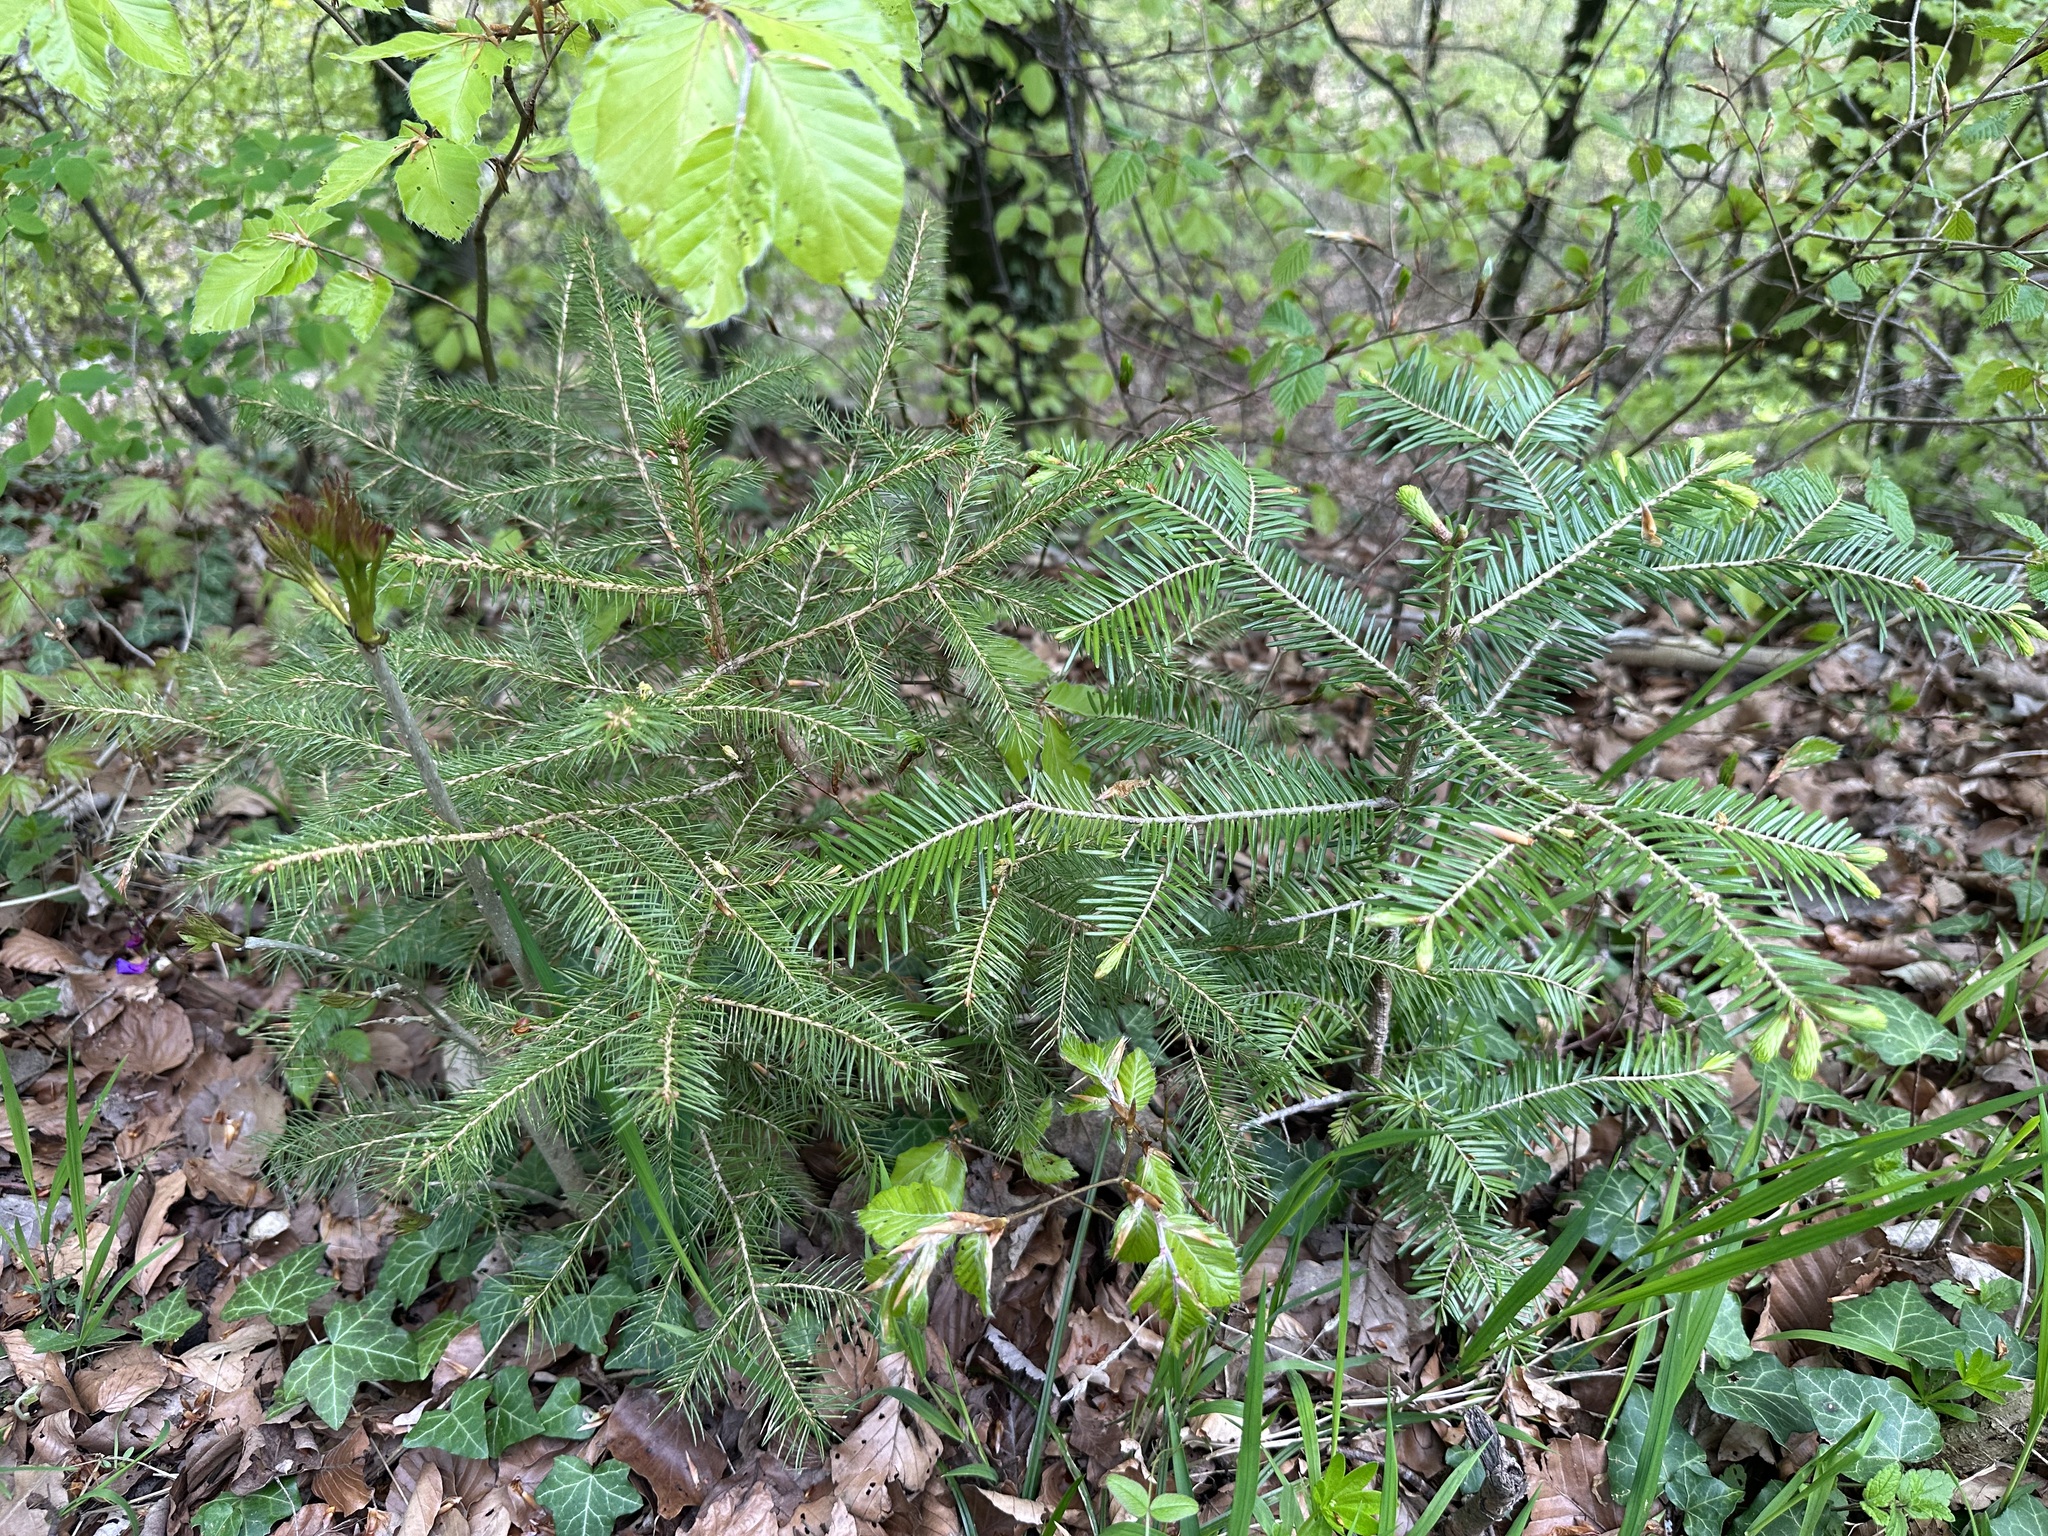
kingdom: Plantae
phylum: Tracheophyta
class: Pinopsida
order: Pinales
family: Pinaceae
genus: Picea
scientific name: Picea abies
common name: Norway spruce
